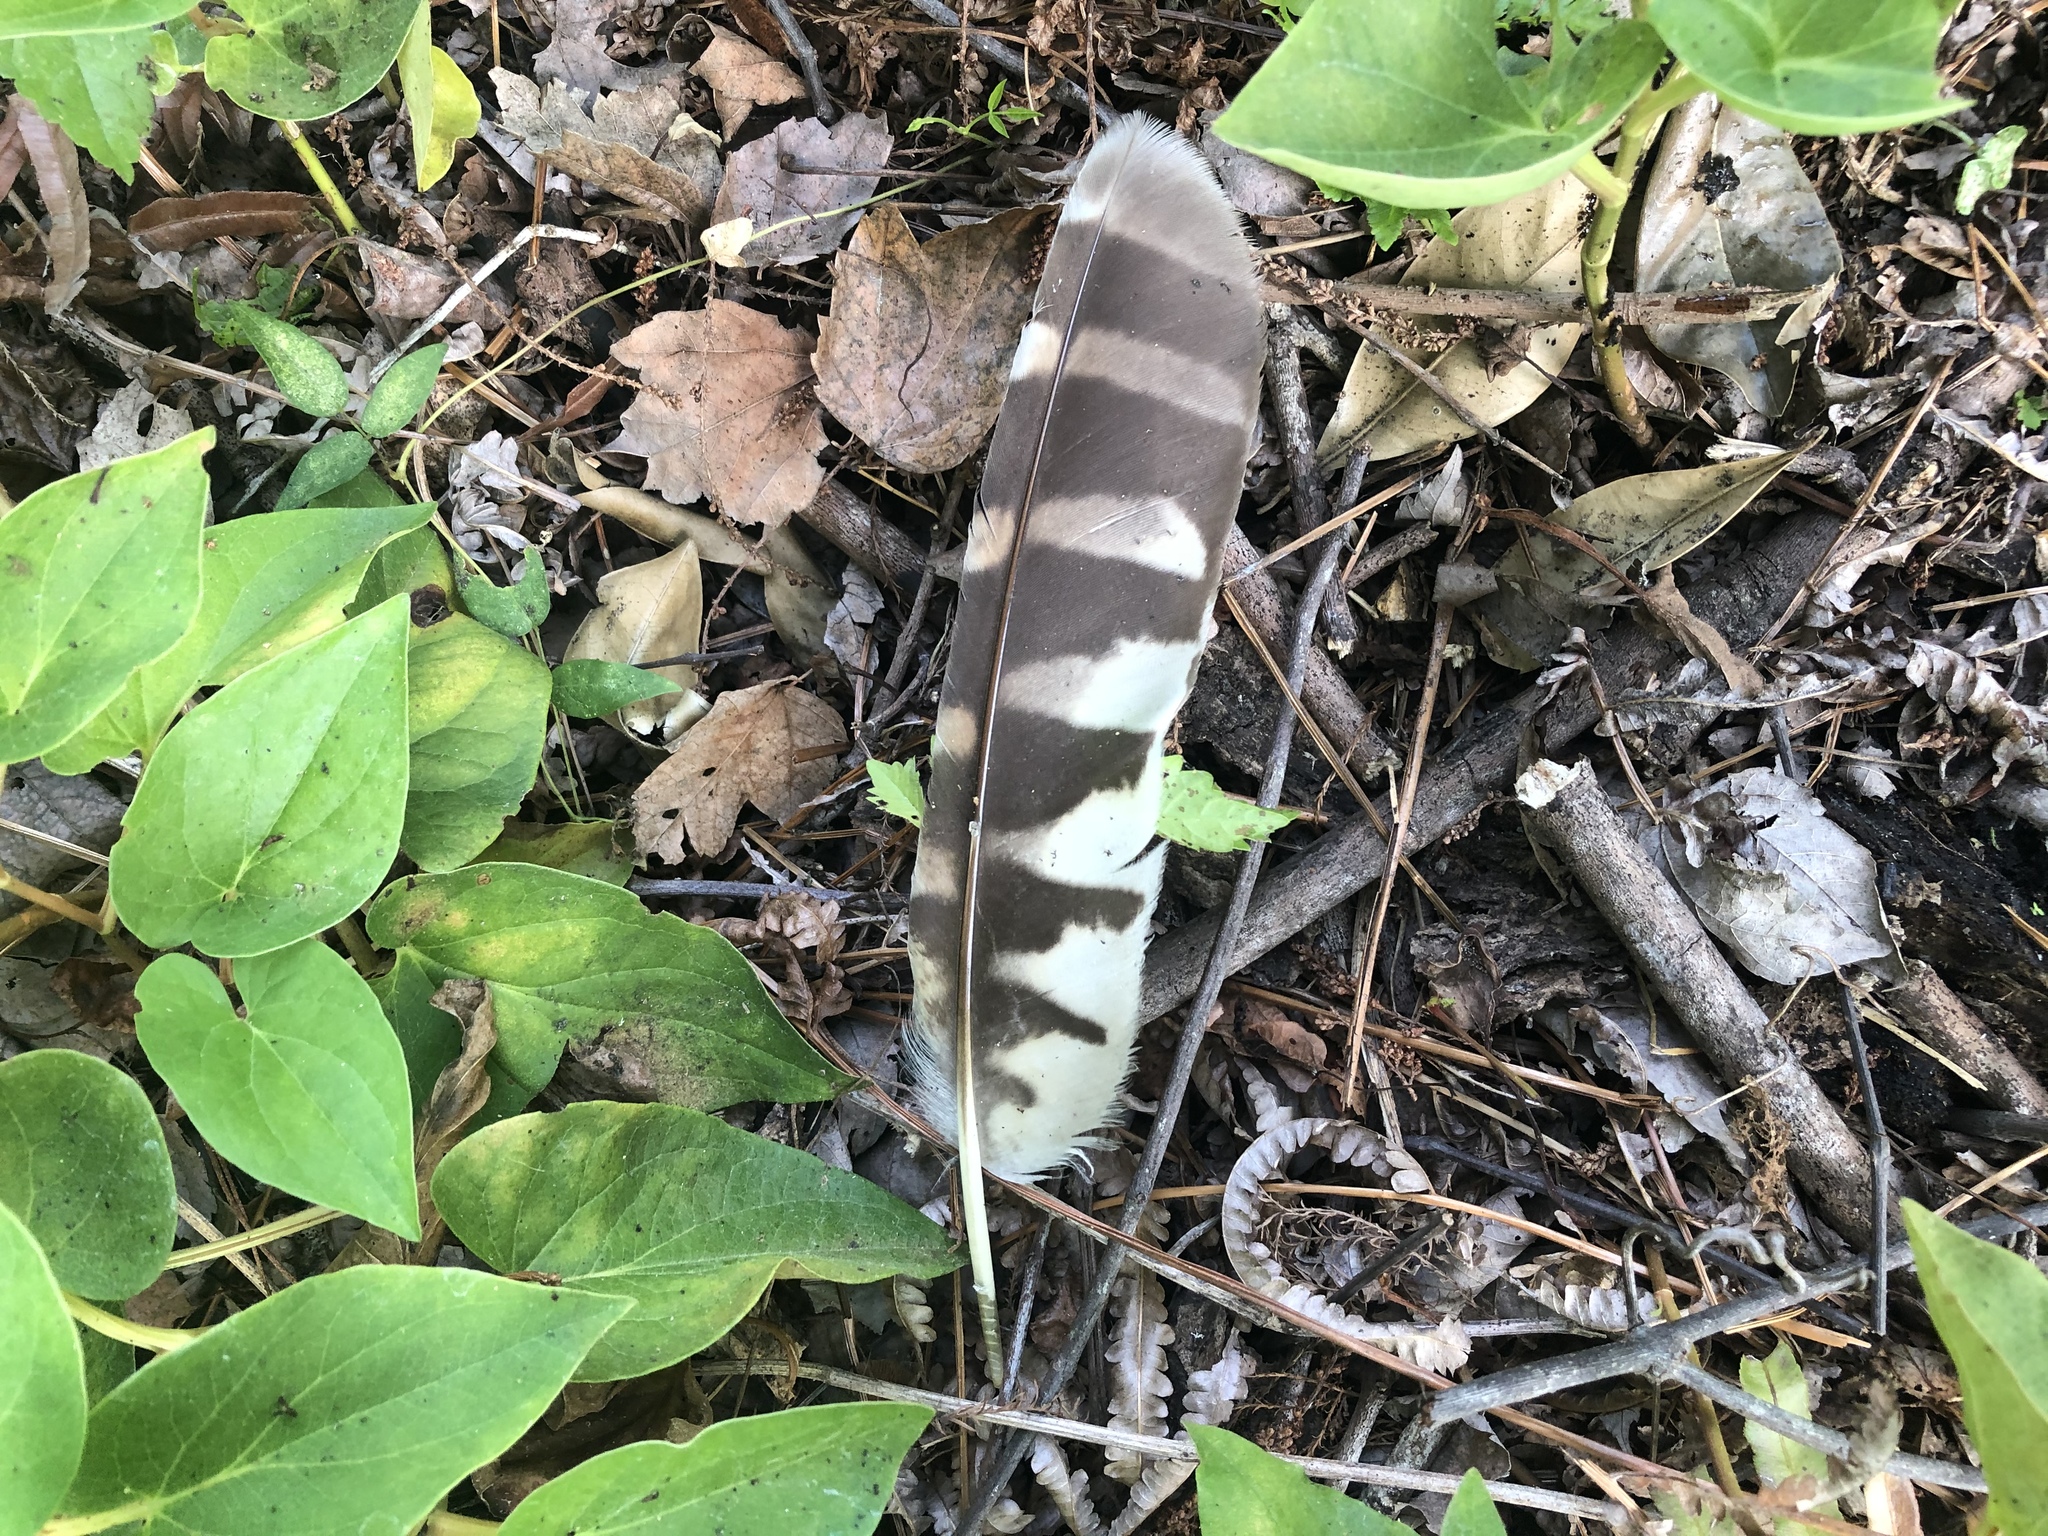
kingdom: Animalia
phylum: Chordata
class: Aves
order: Strigiformes
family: Strigidae
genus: Strix
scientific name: Strix varia
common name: Barred owl
